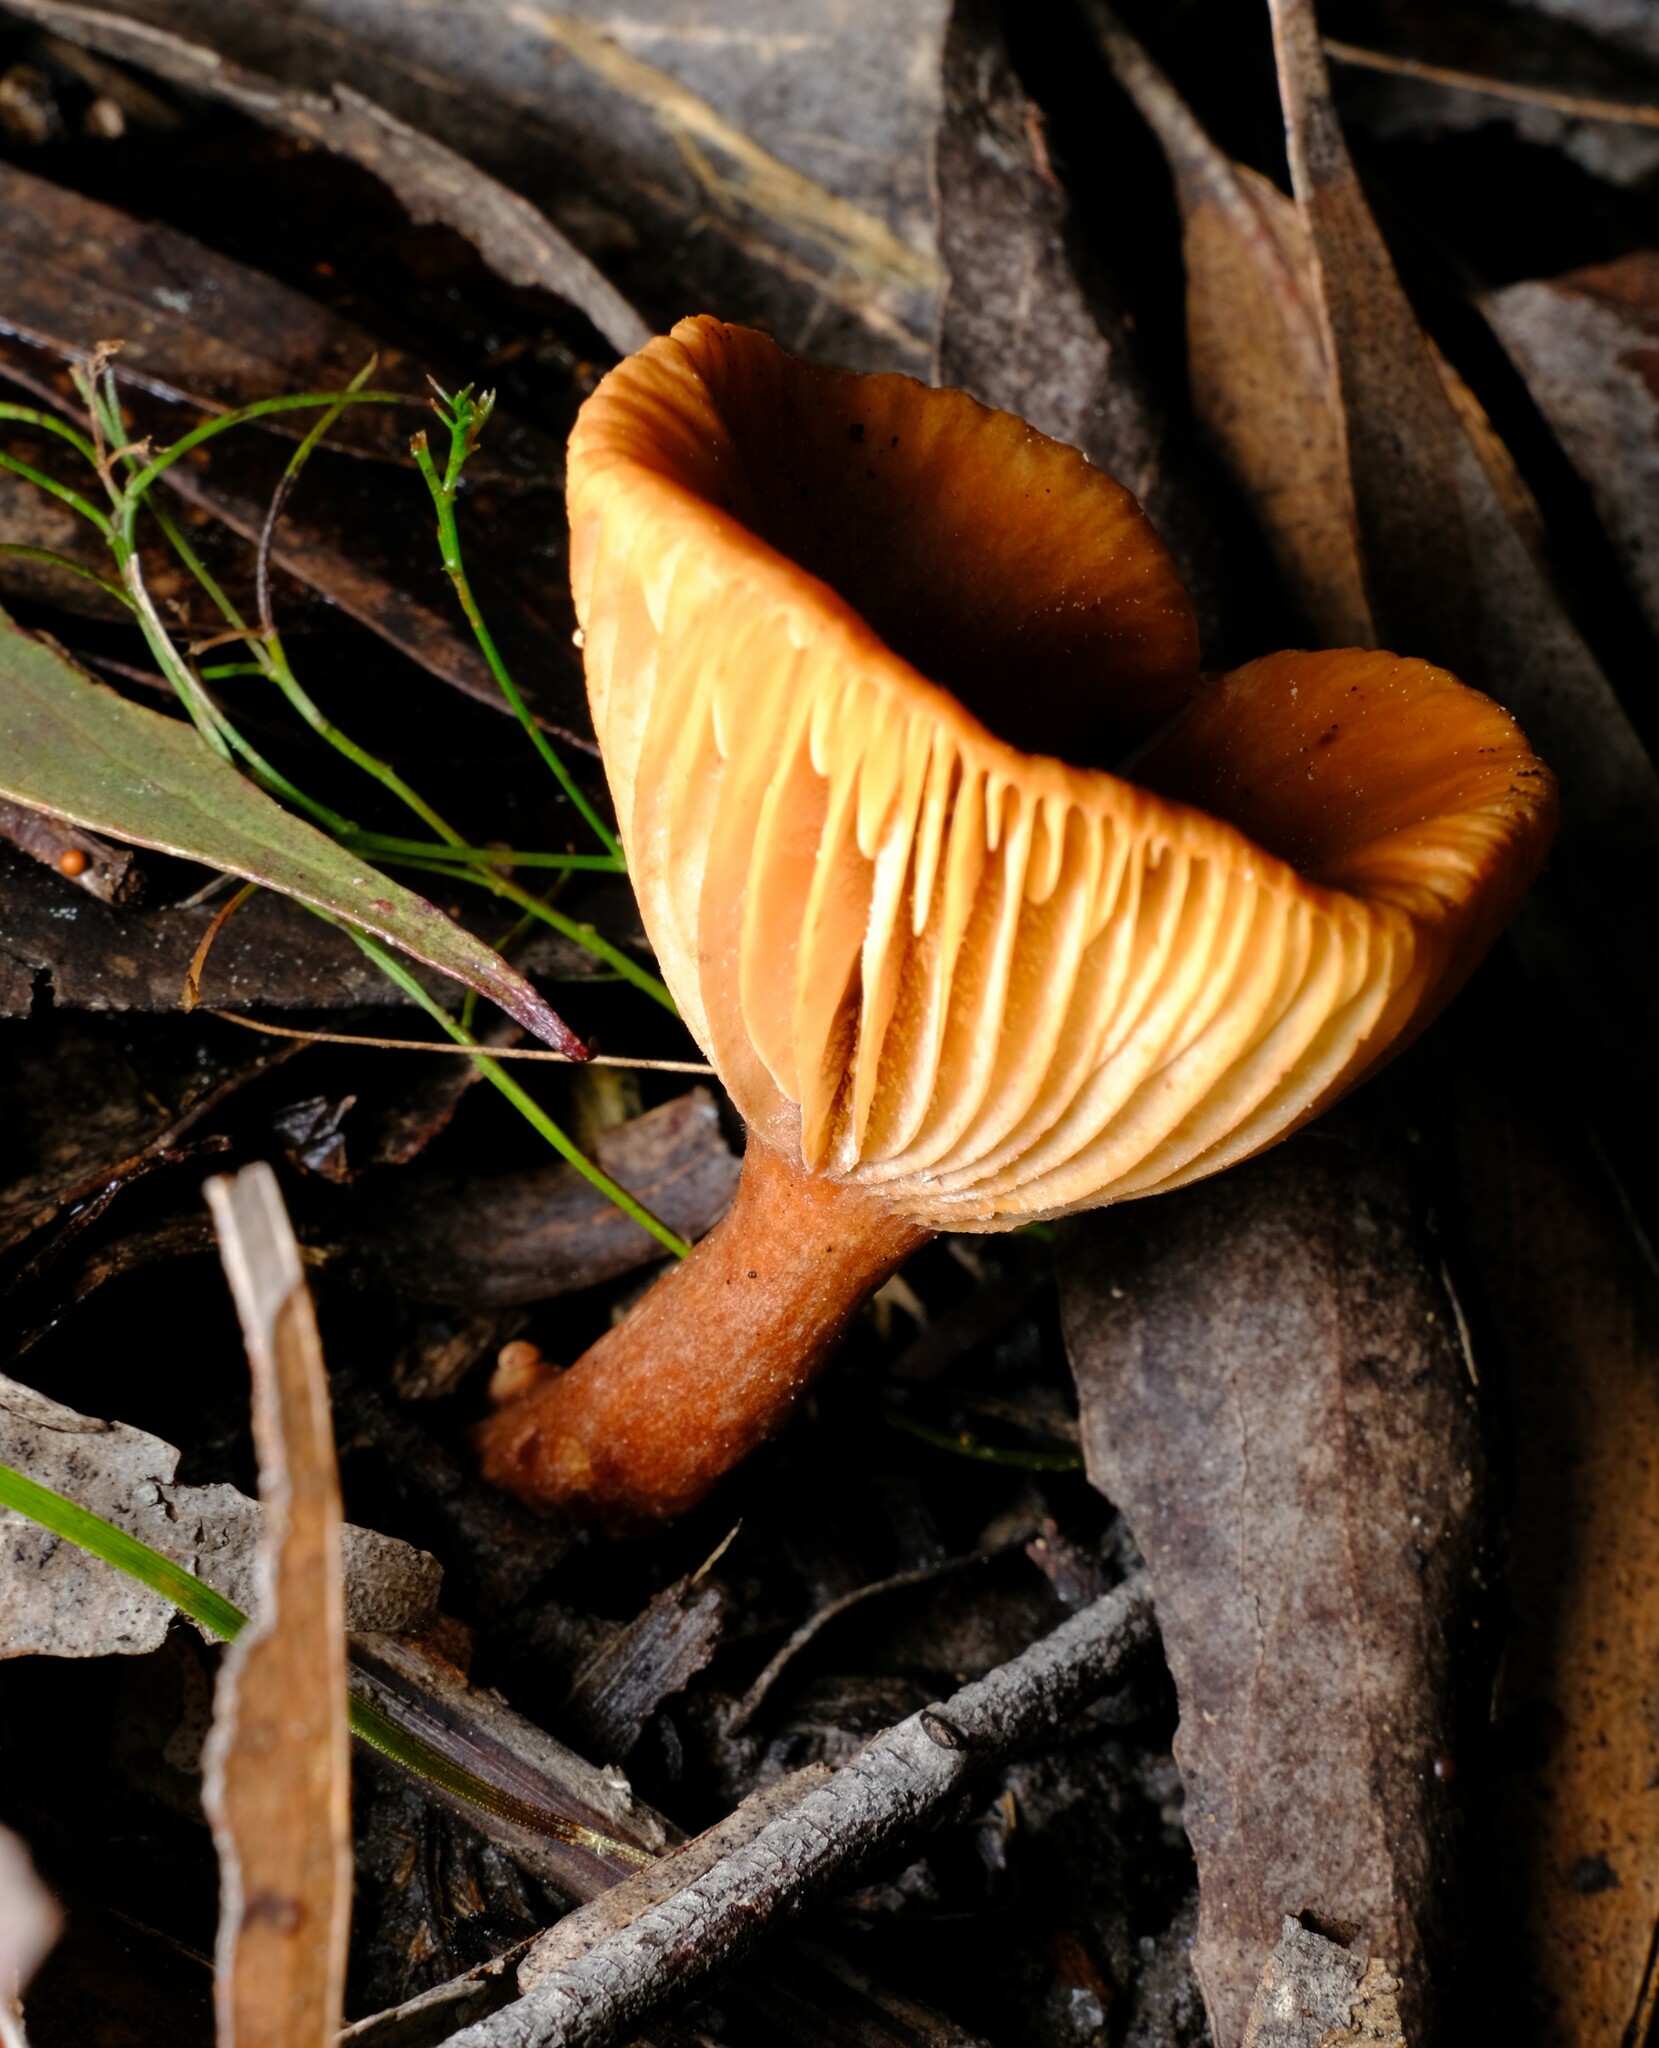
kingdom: Fungi
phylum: Basidiomycota
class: Agaricomycetes
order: Russulales
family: Russulaceae
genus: Lactarius
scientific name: Lactarius eucalypti
